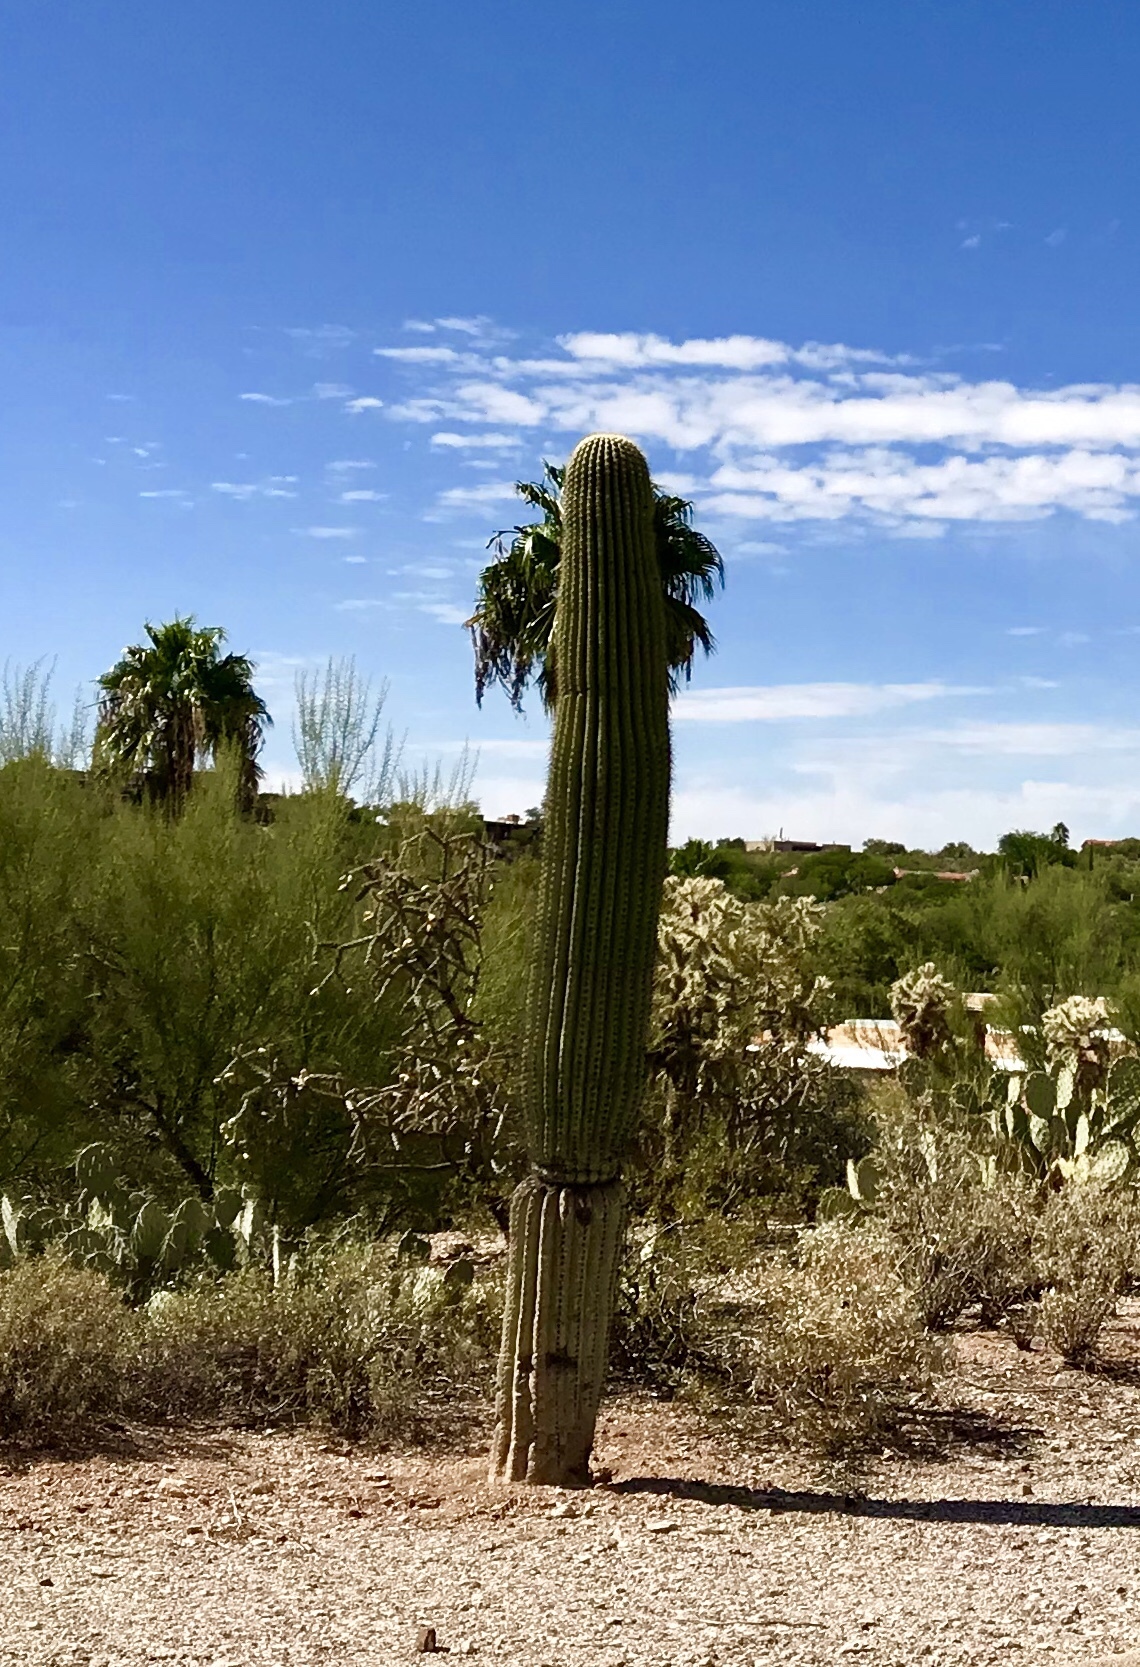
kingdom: Plantae
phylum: Tracheophyta
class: Magnoliopsida
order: Caryophyllales
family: Cactaceae
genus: Carnegiea
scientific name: Carnegiea gigantea
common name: Saguaro
